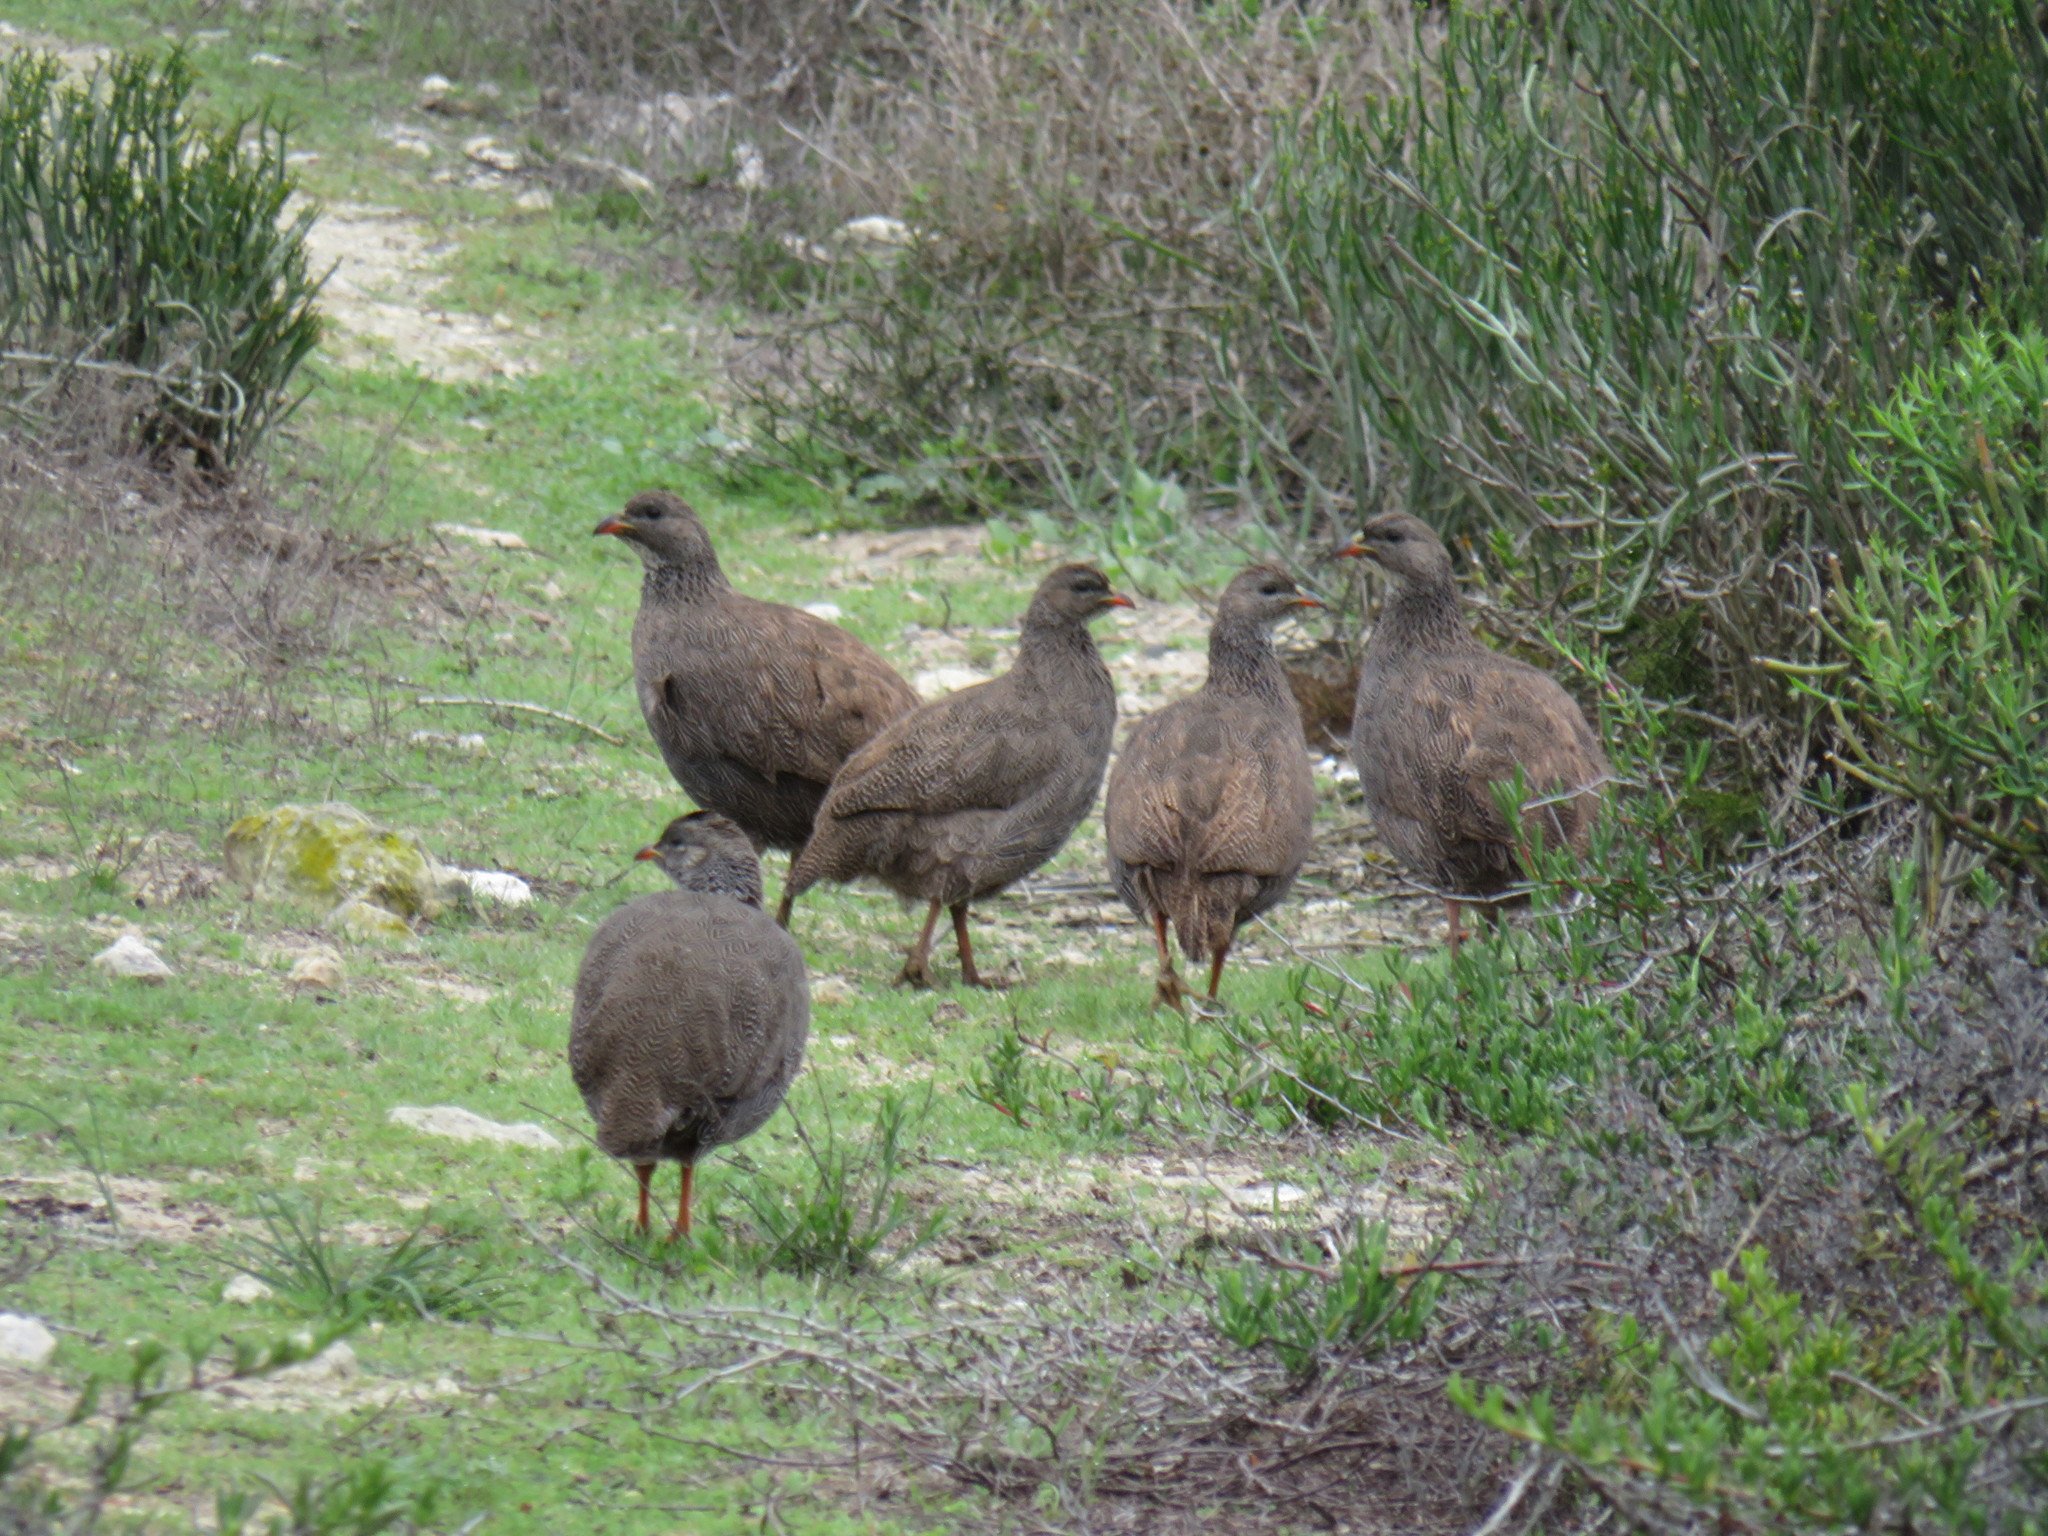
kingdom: Animalia
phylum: Chordata
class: Aves
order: Galliformes
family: Phasianidae
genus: Pternistis
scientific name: Pternistis capensis
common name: Cape spurfowl
